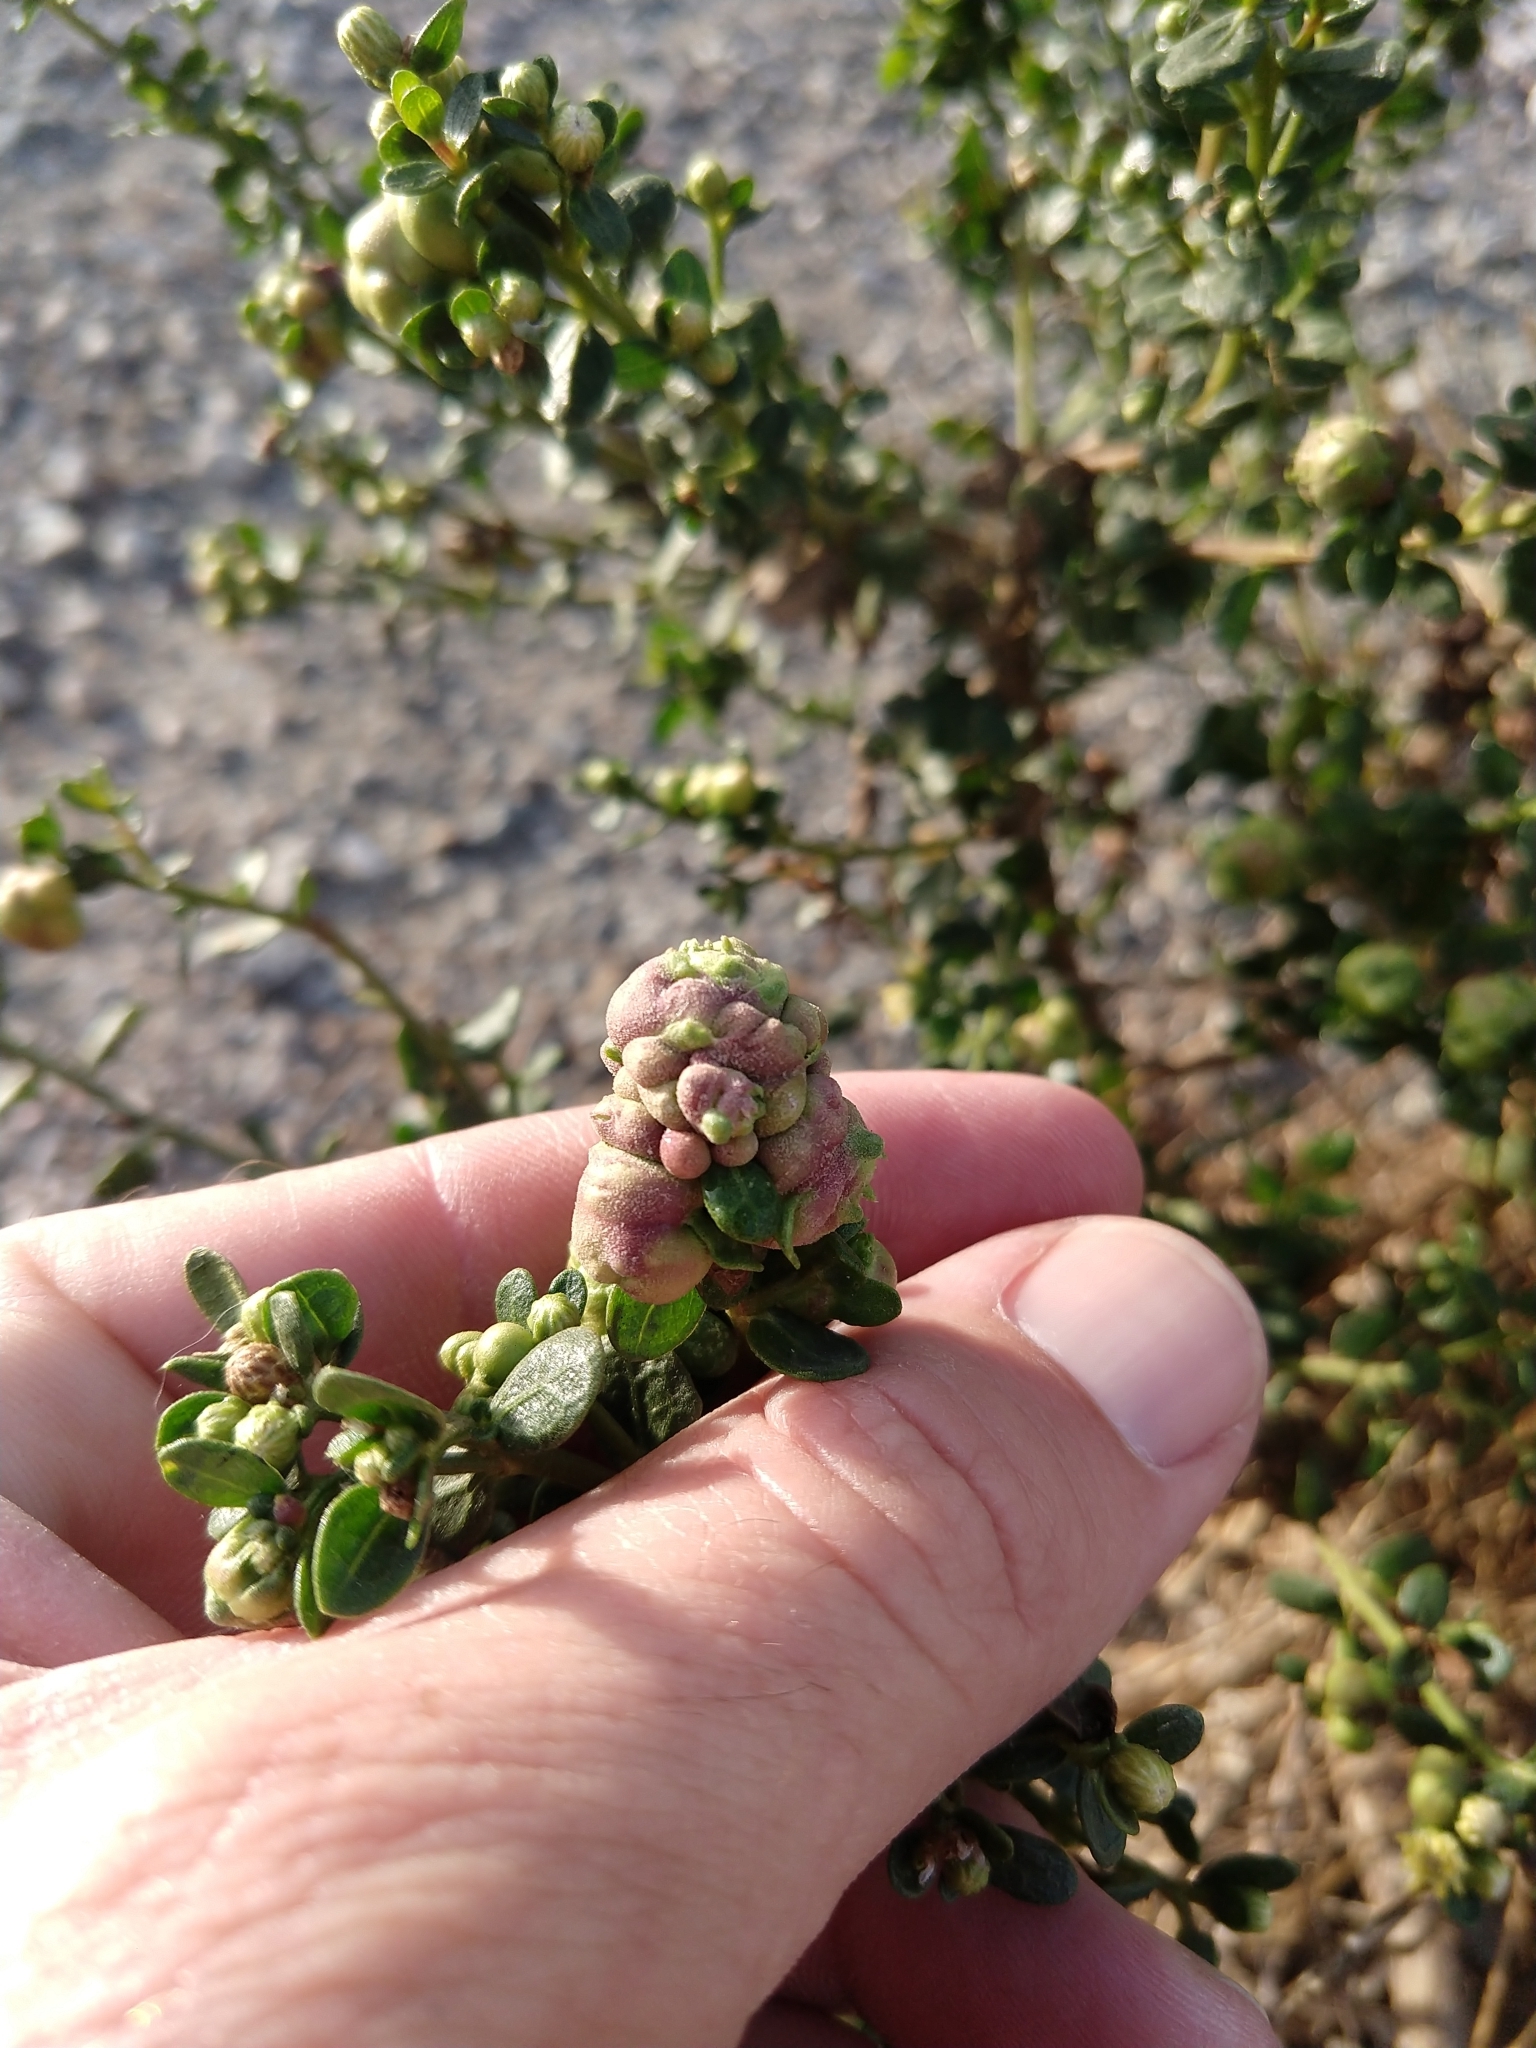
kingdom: Animalia
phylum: Arthropoda
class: Insecta
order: Diptera
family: Cecidomyiidae
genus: Rhopalomyia
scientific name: Rhopalomyia californica
